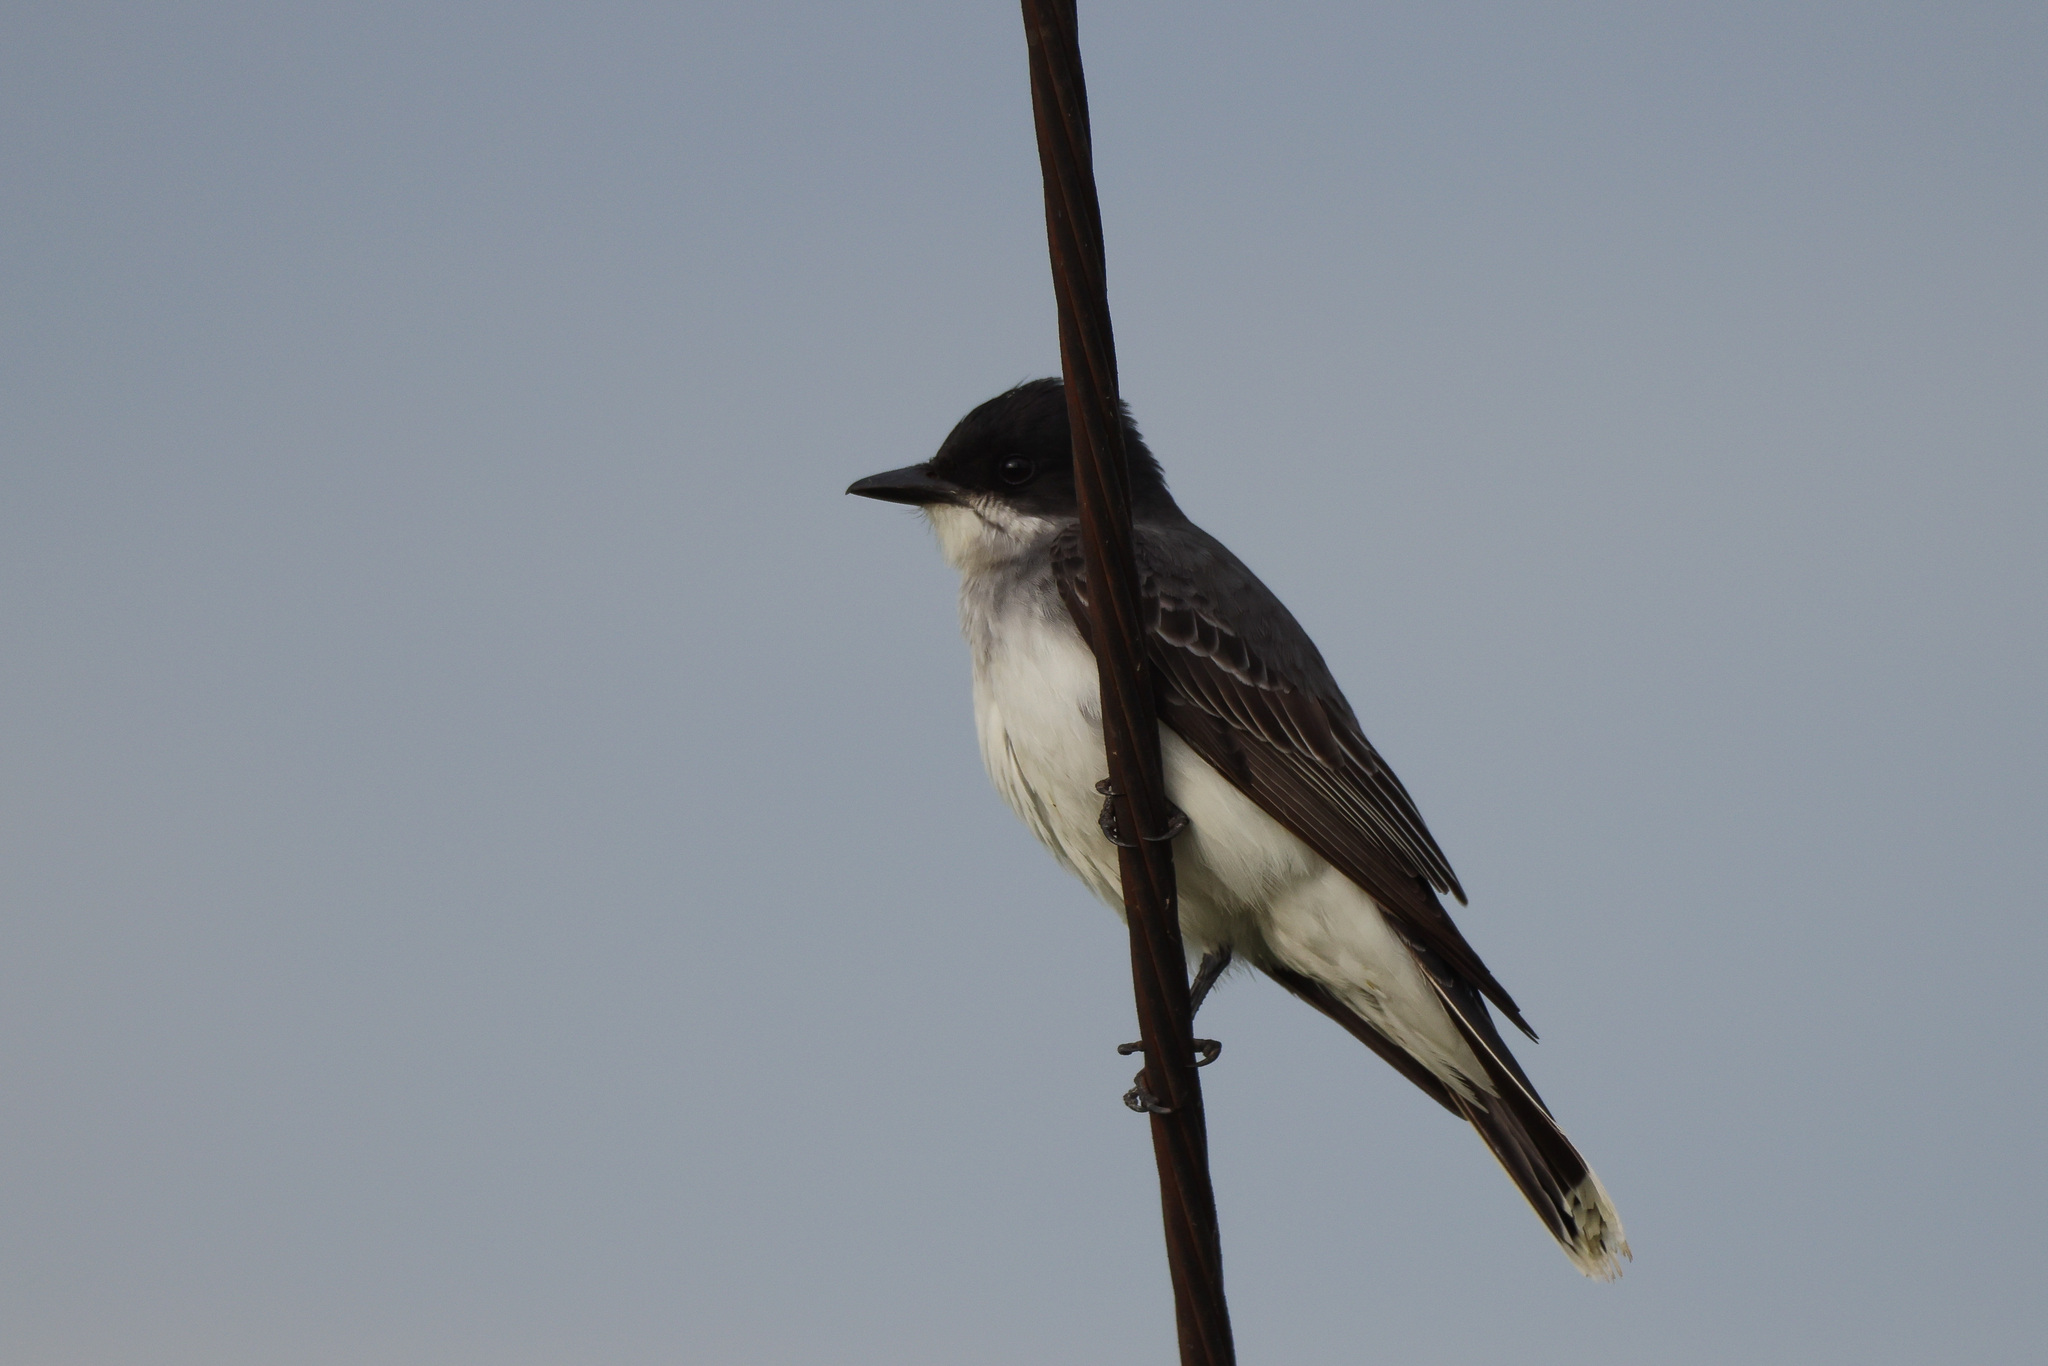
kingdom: Animalia
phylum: Chordata
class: Aves
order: Passeriformes
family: Tyrannidae
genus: Tyrannus
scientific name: Tyrannus tyrannus
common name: Eastern kingbird
